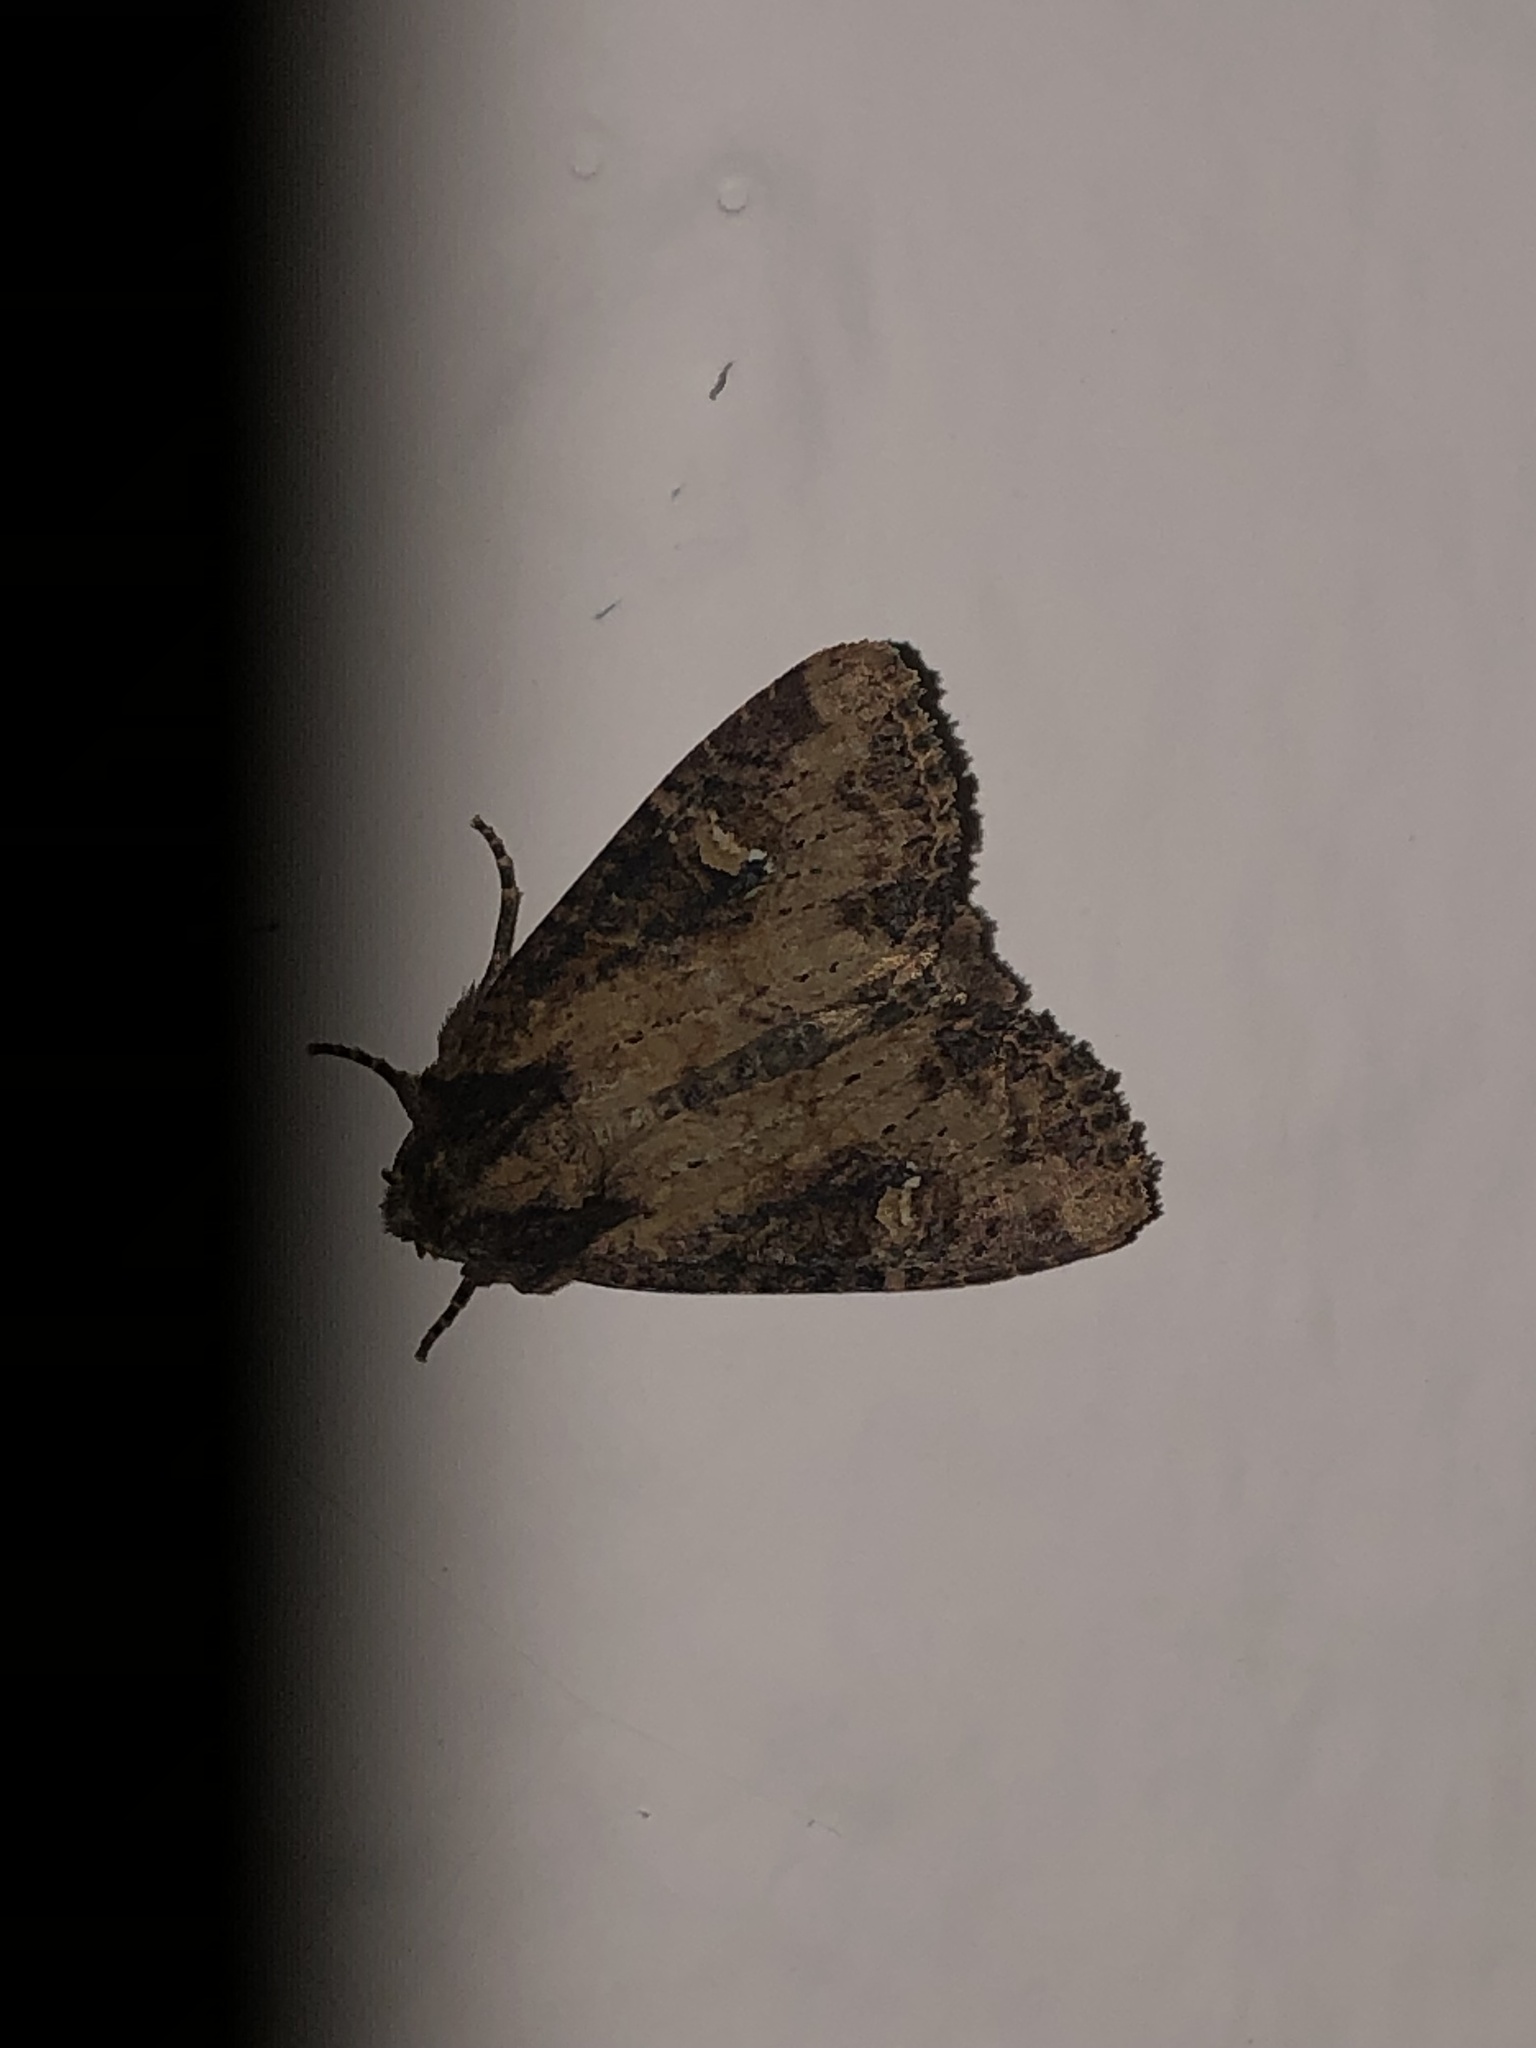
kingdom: Animalia
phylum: Arthropoda
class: Insecta
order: Lepidoptera
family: Noctuidae
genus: Mesapamea
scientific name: Mesapamea
